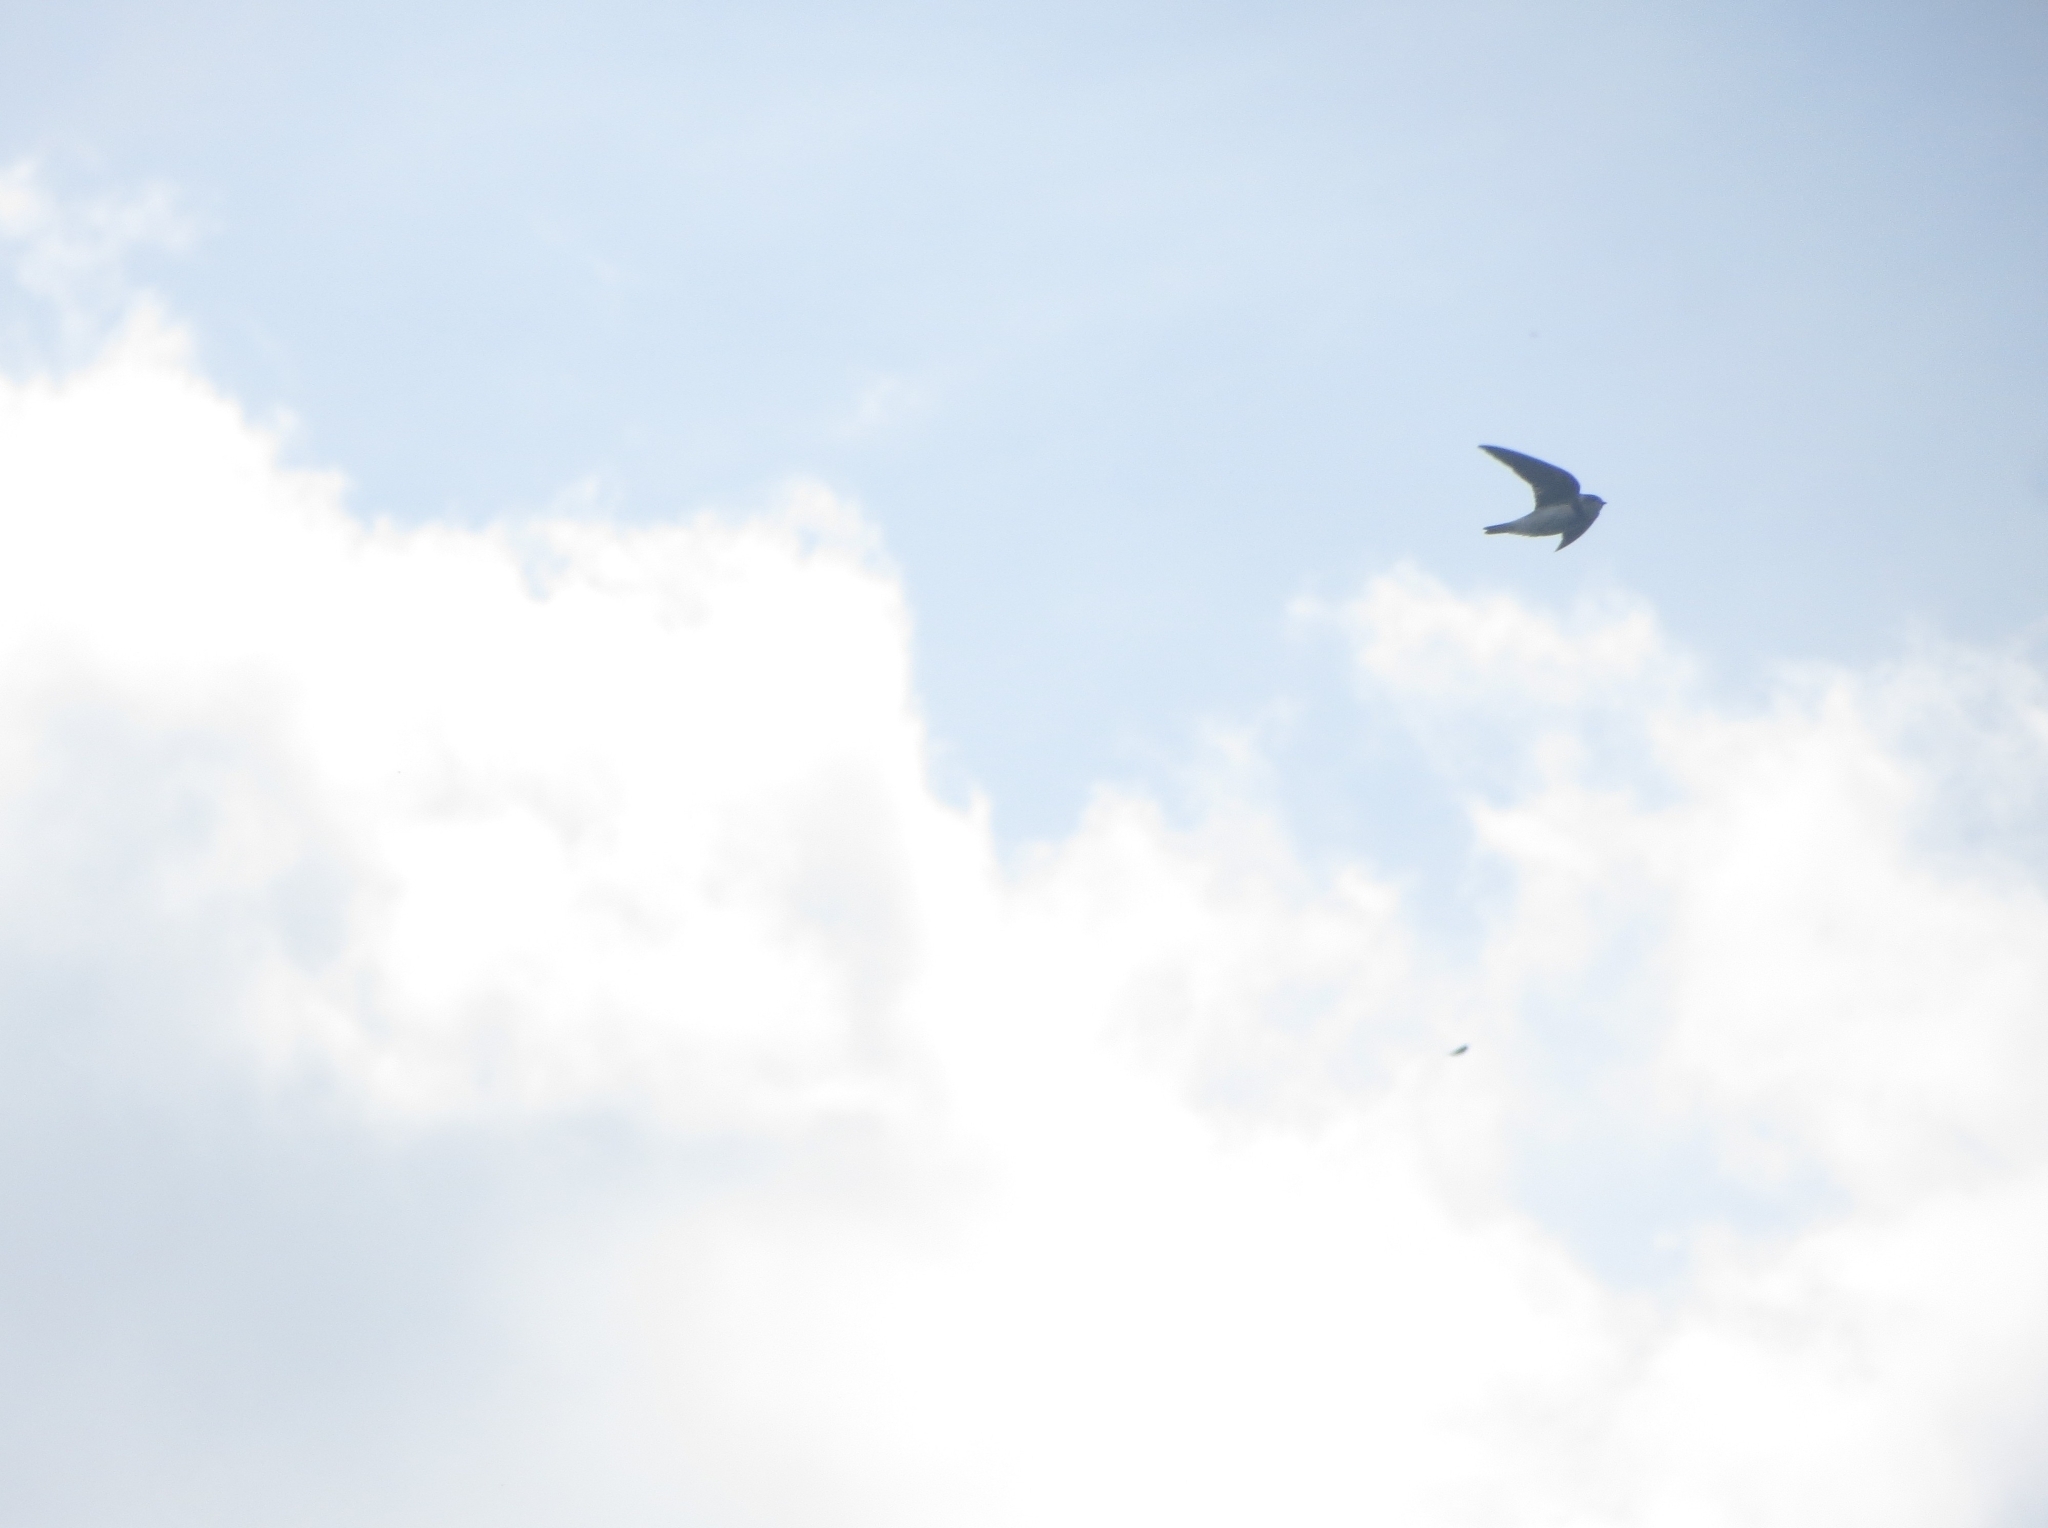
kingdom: Animalia
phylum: Chordata
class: Aves
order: Passeriformes
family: Hirundinidae
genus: Riparia
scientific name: Riparia riparia
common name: Sand martin
